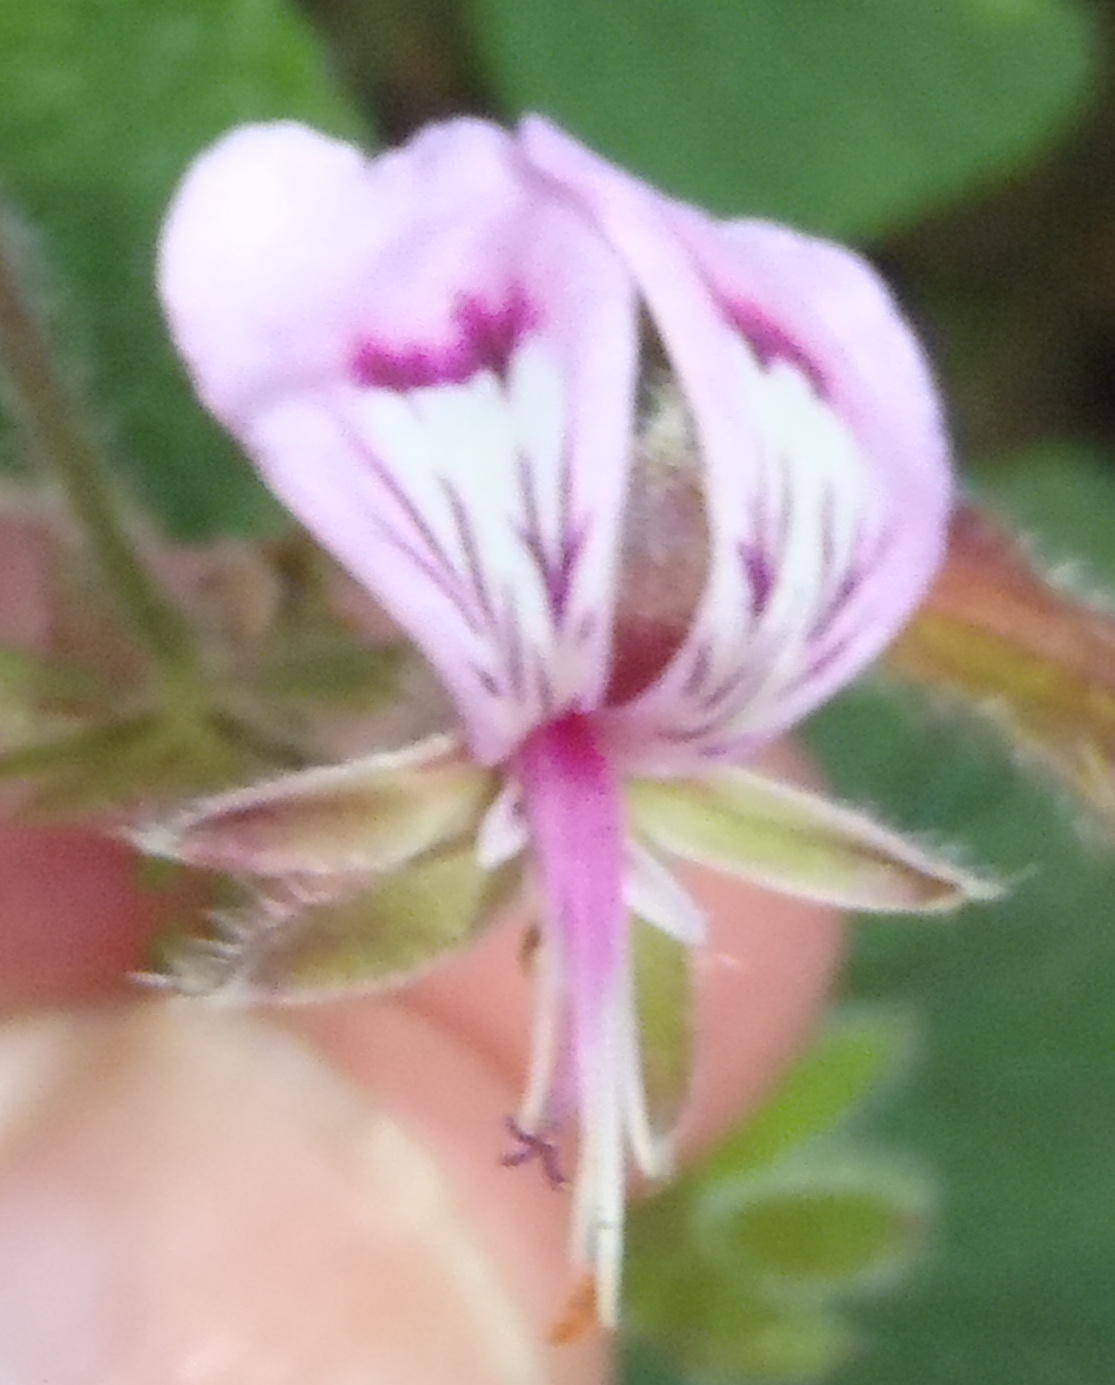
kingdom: Plantae
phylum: Tracheophyta
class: Magnoliopsida
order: Geraniales
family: Geraniaceae
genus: Pelargonium
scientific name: Pelargonium papilionaceum
